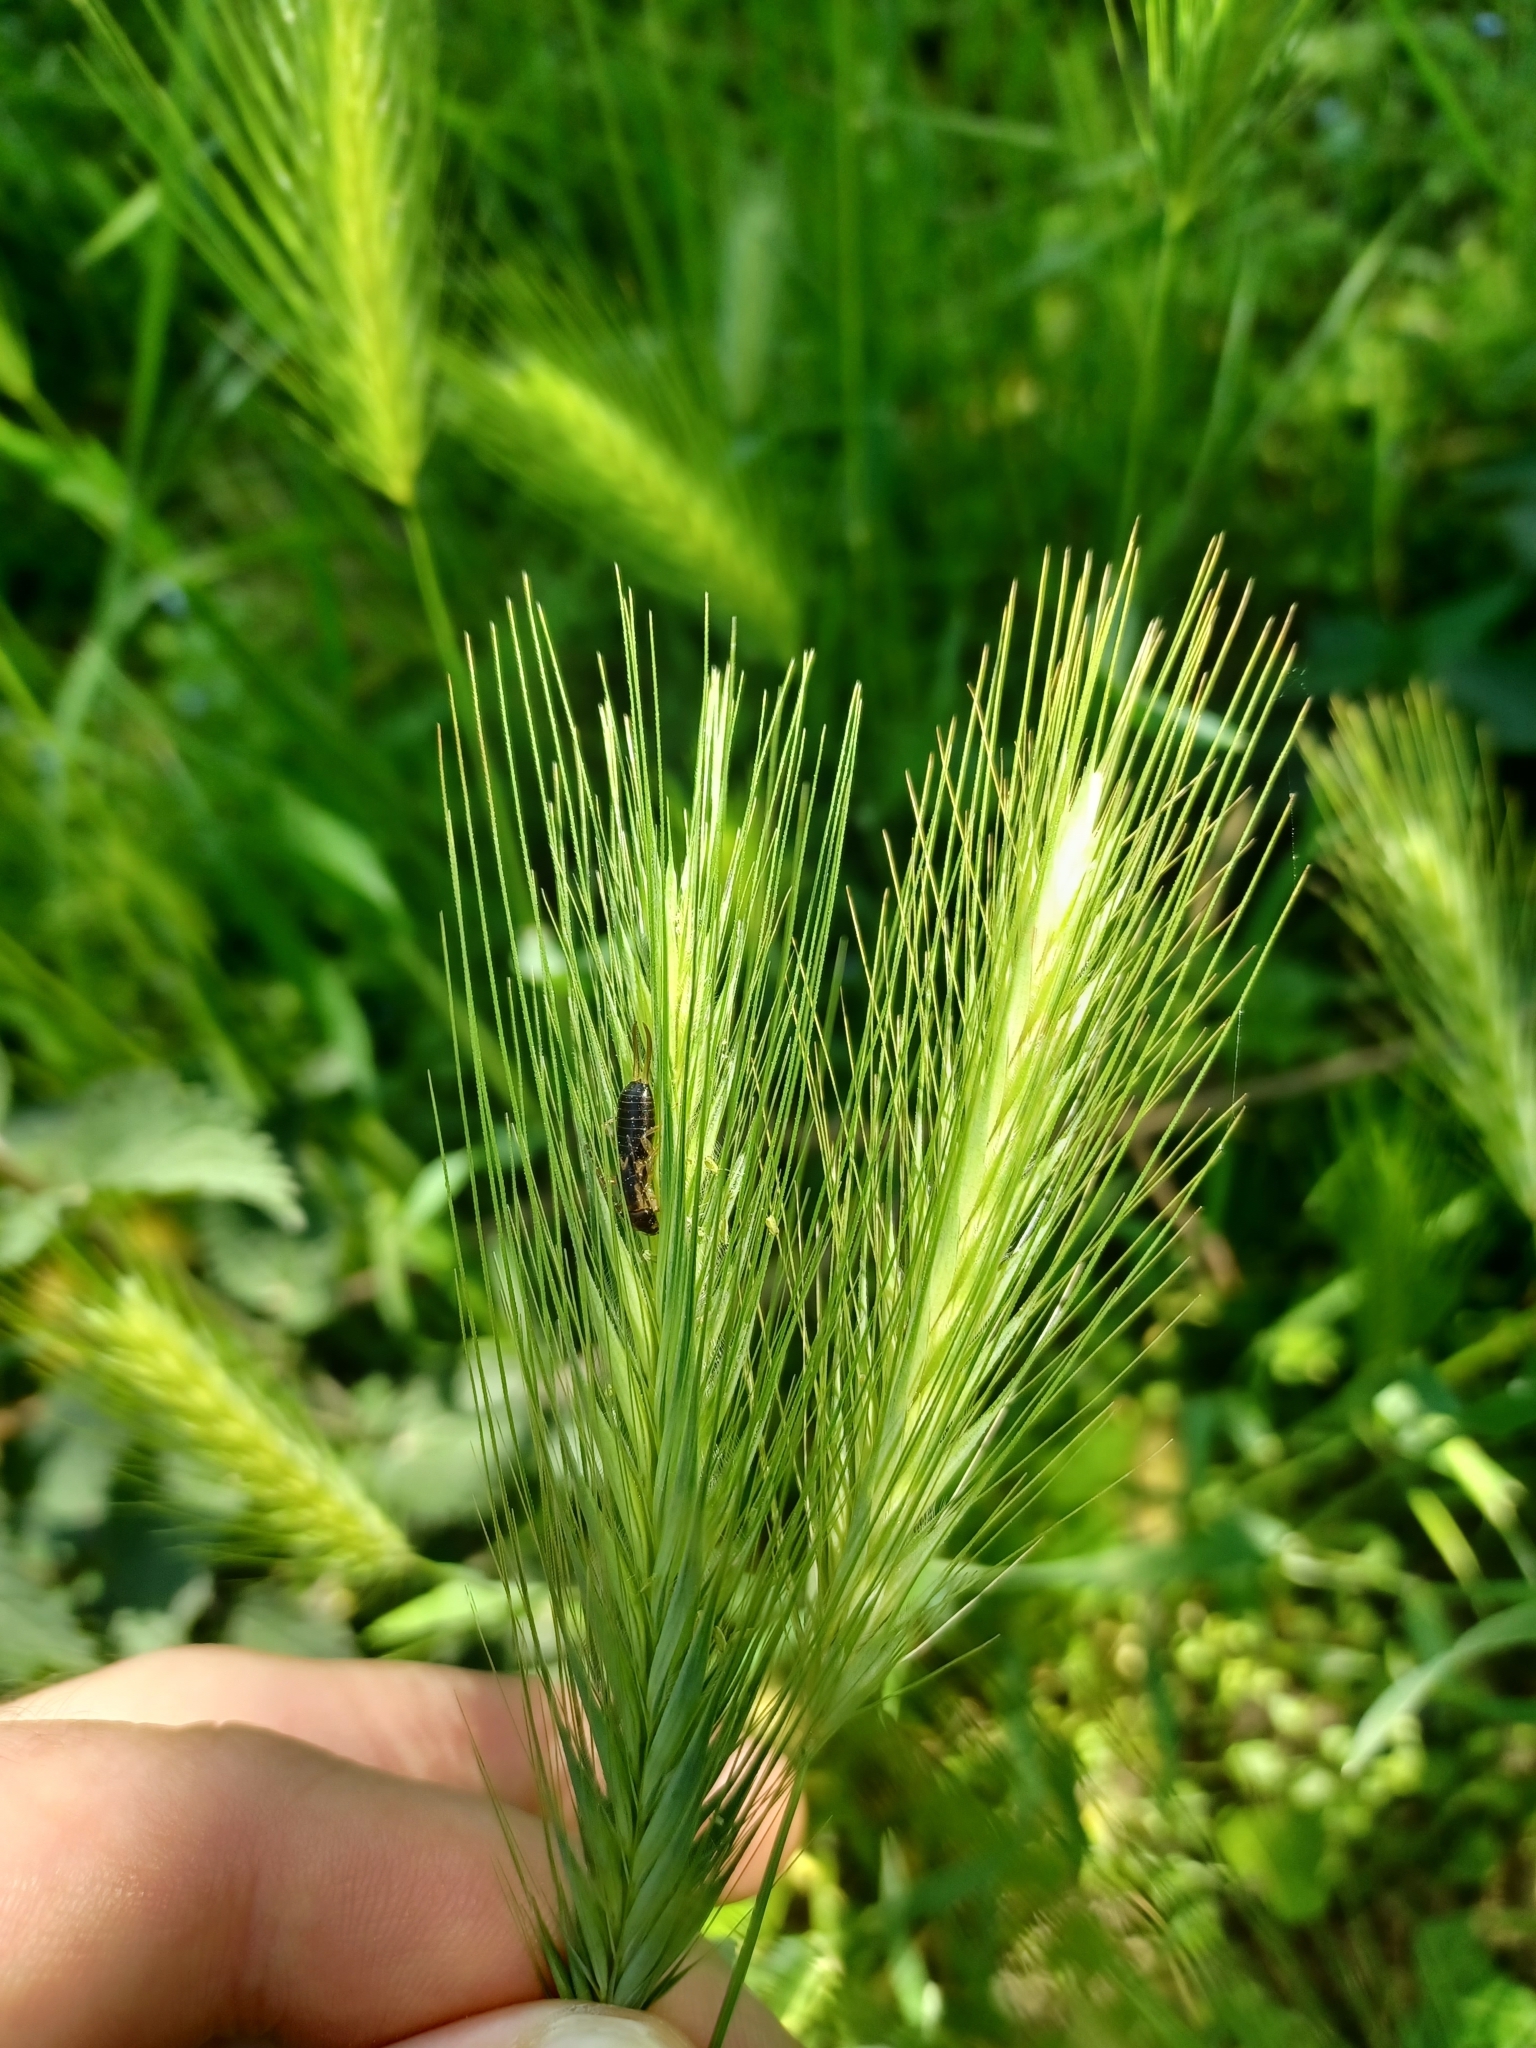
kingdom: Animalia
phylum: Arthropoda
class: Insecta
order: Dermaptera
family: Forficulidae
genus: Forficula
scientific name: Forficula
